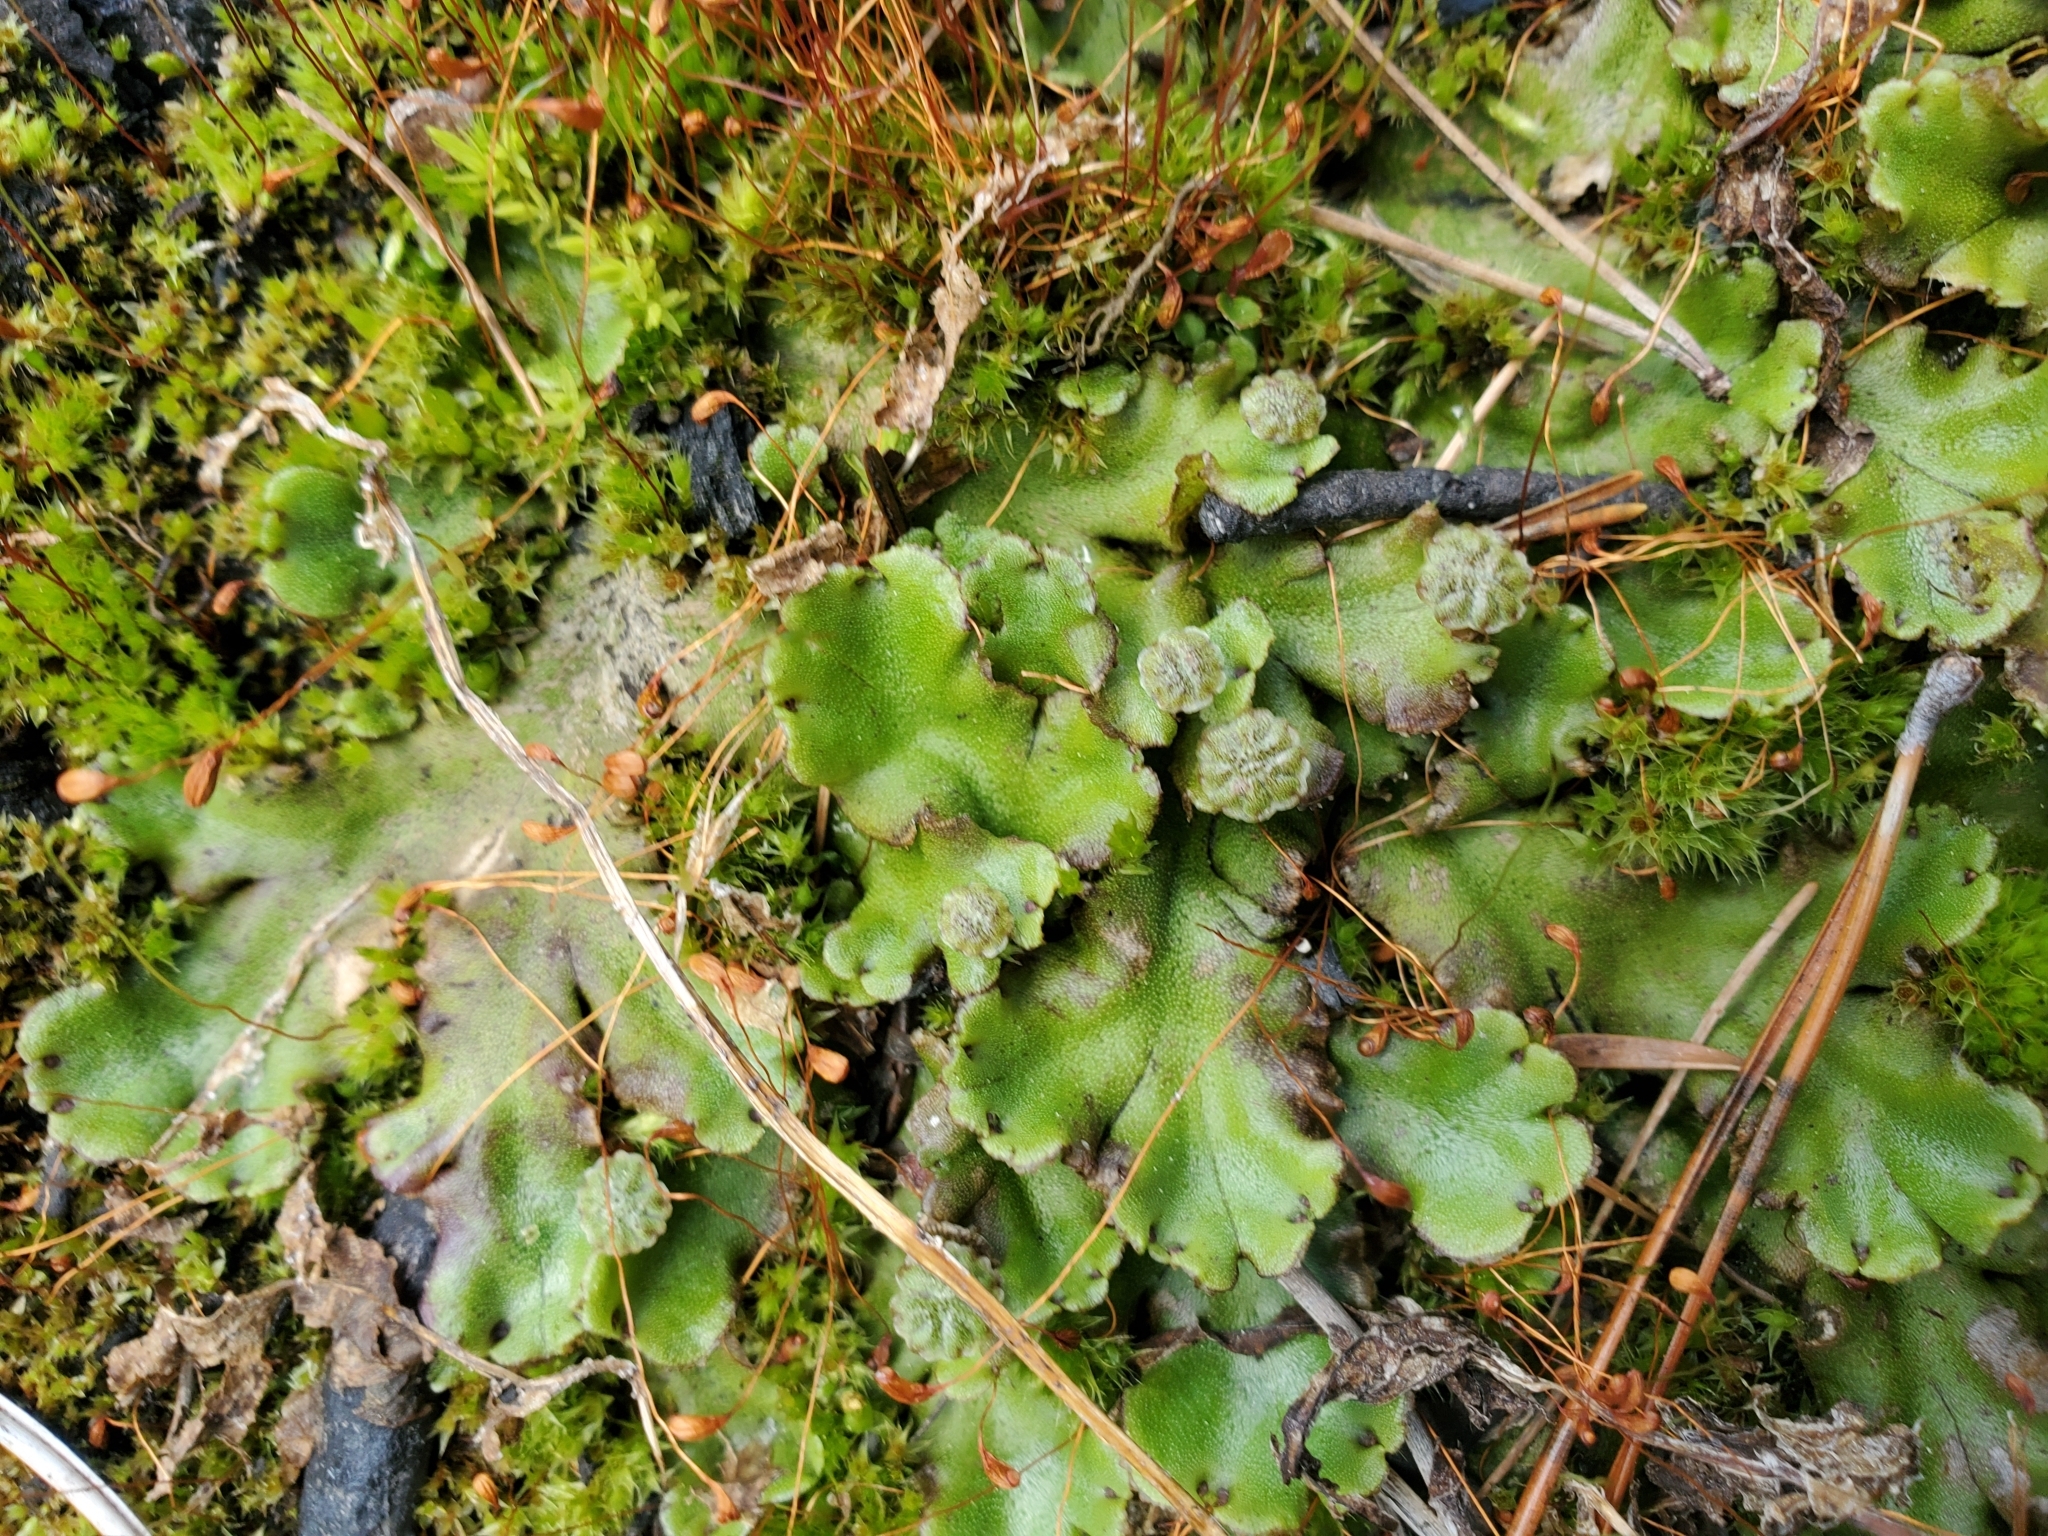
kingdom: Plantae
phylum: Marchantiophyta
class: Marchantiopsida
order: Marchantiales
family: Marchantiaceae
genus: Marchantia
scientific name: Marchantia polymorpha
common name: Common liverwort
